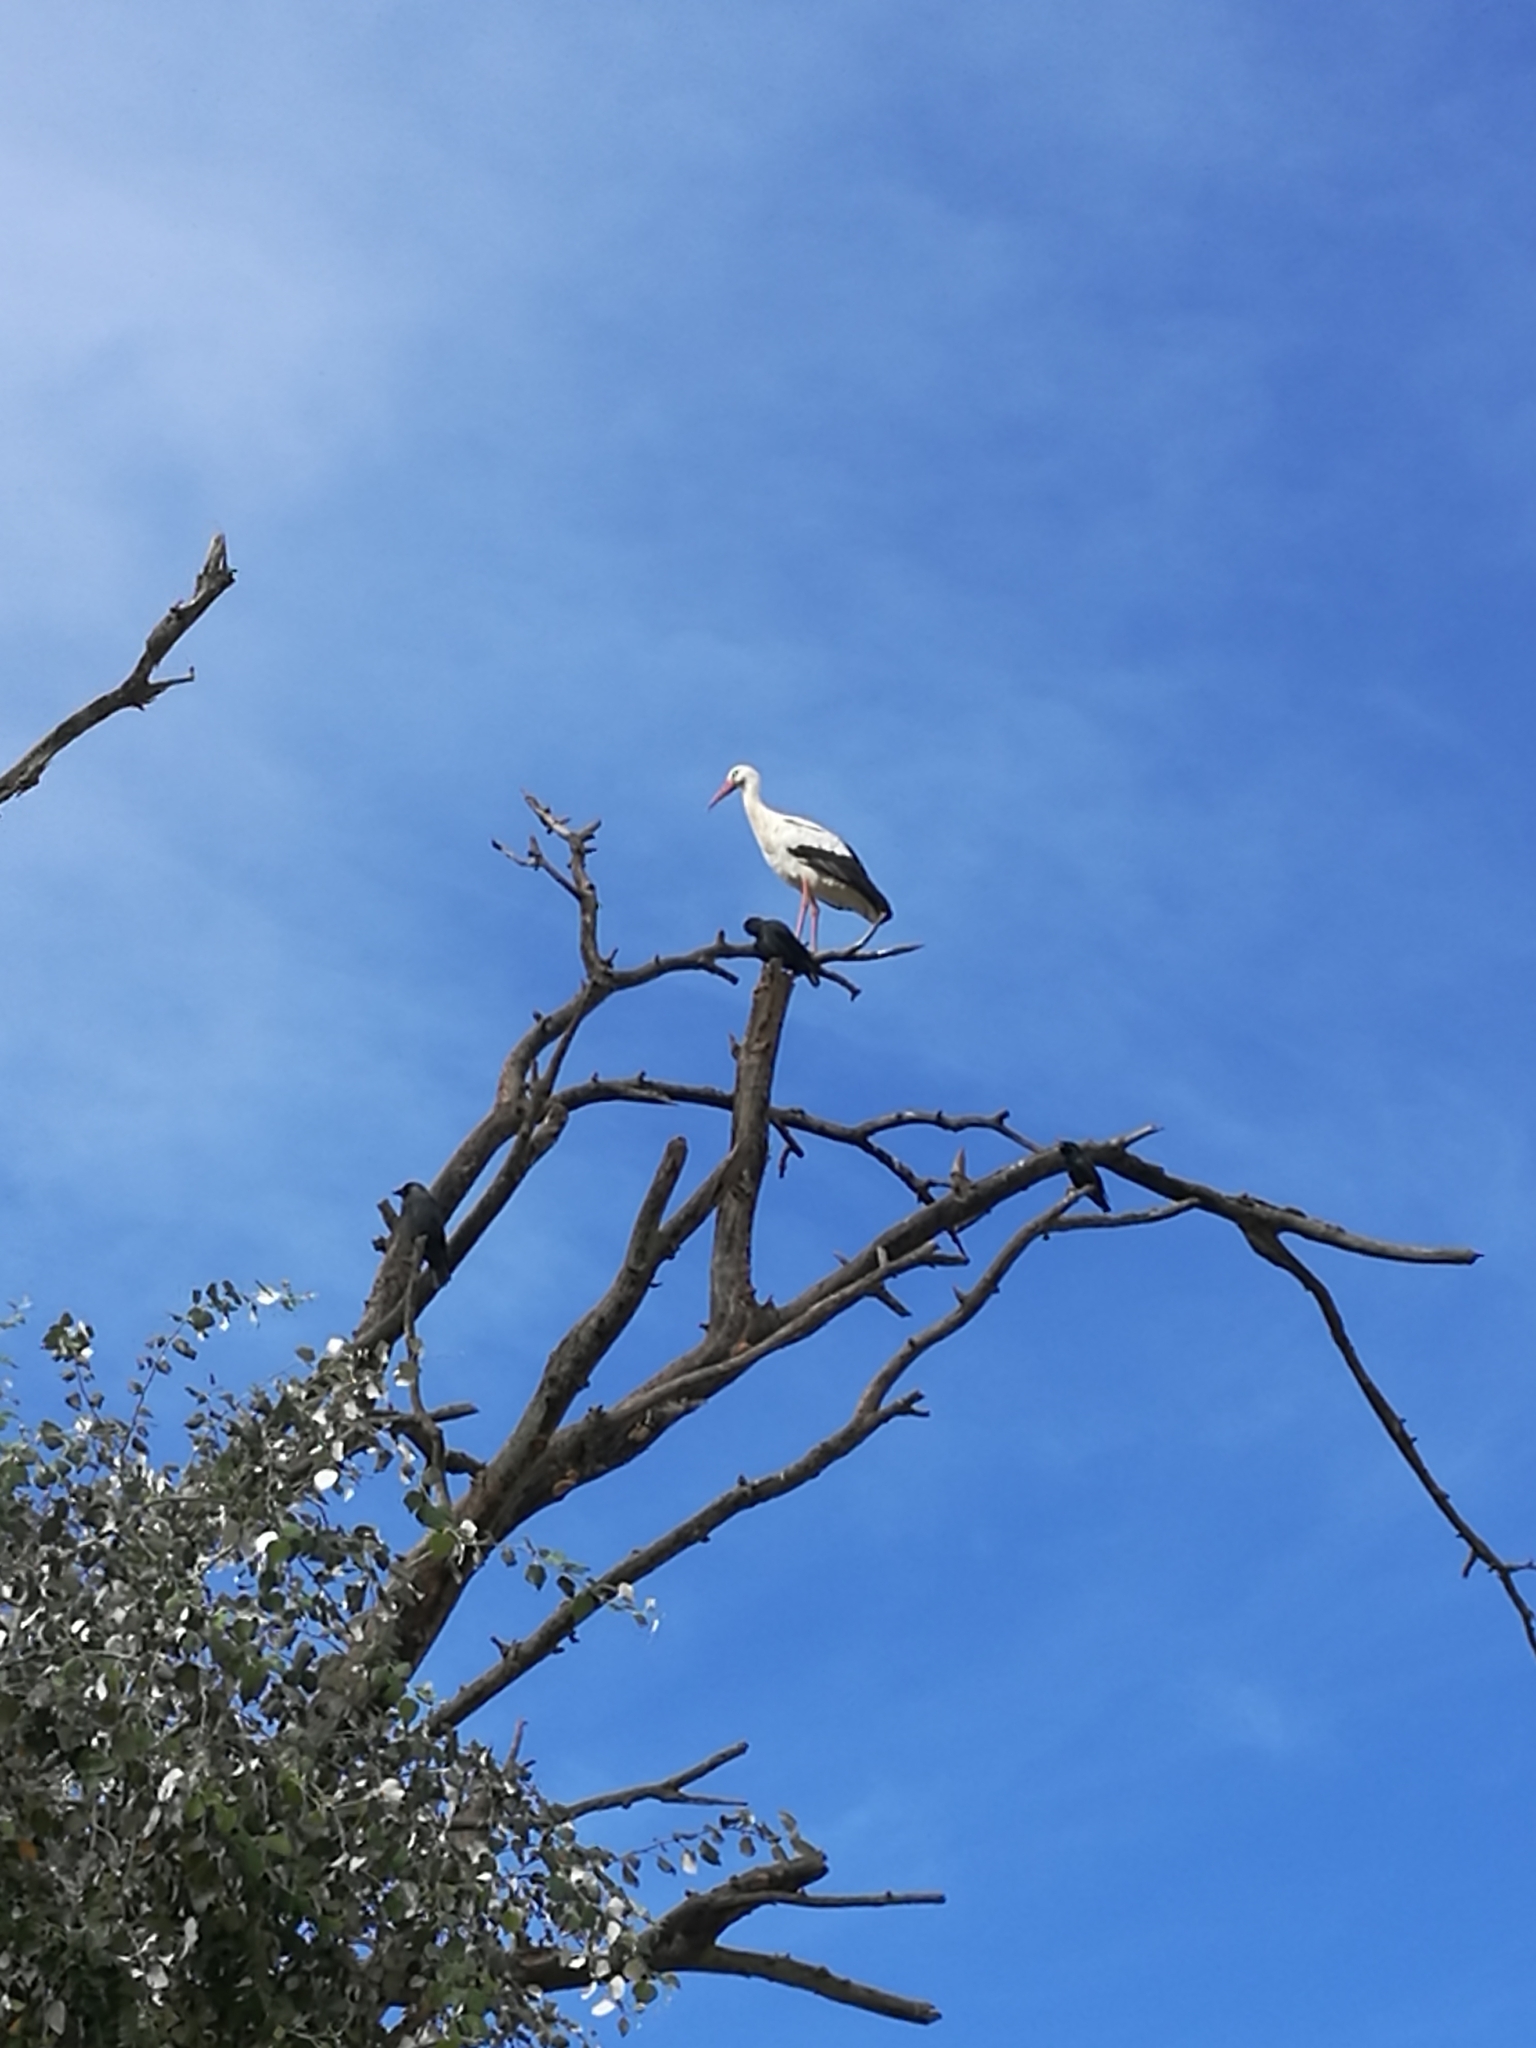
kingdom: Animalia
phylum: Chordata
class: Aves
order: Ciconiiformes
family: Ciconiidae
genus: Ciconia
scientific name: Ciconia ciconia
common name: White stork
